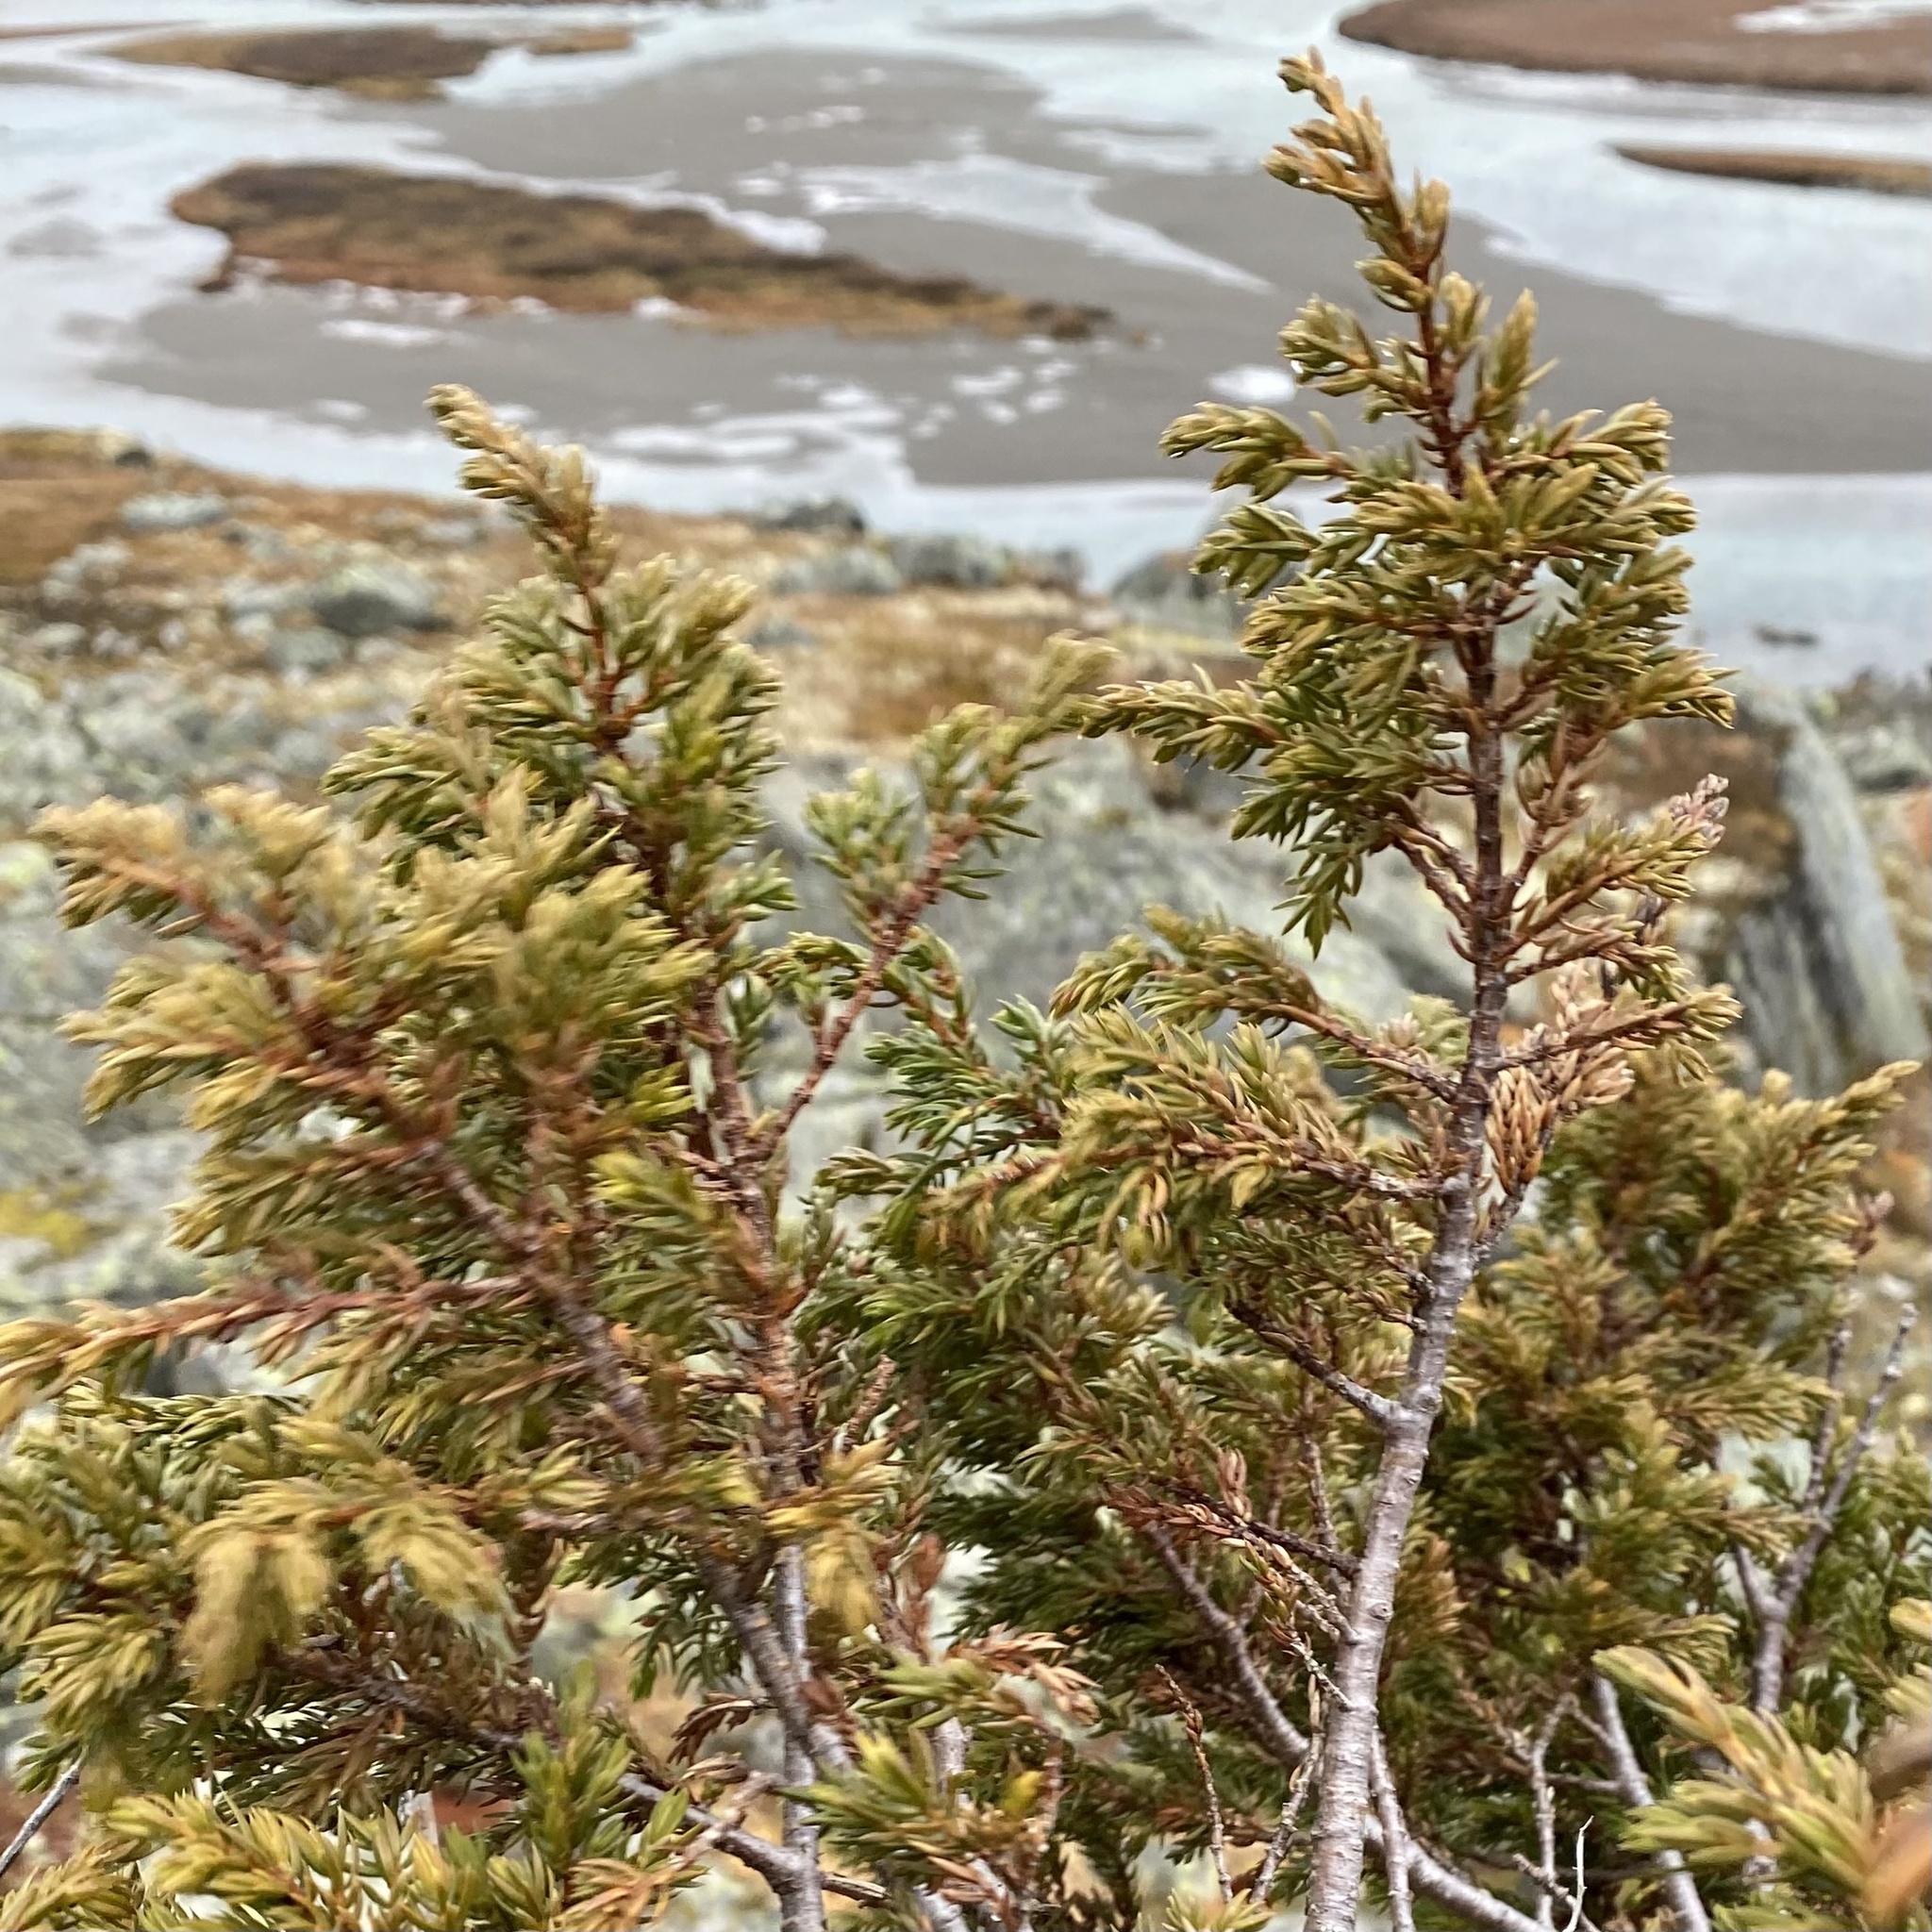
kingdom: Plantae
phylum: Tracheophyta
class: Pinopsida
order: Pinales
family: Cupressaceae
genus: Juniperus
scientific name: Juniperus communis
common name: Common juniper
